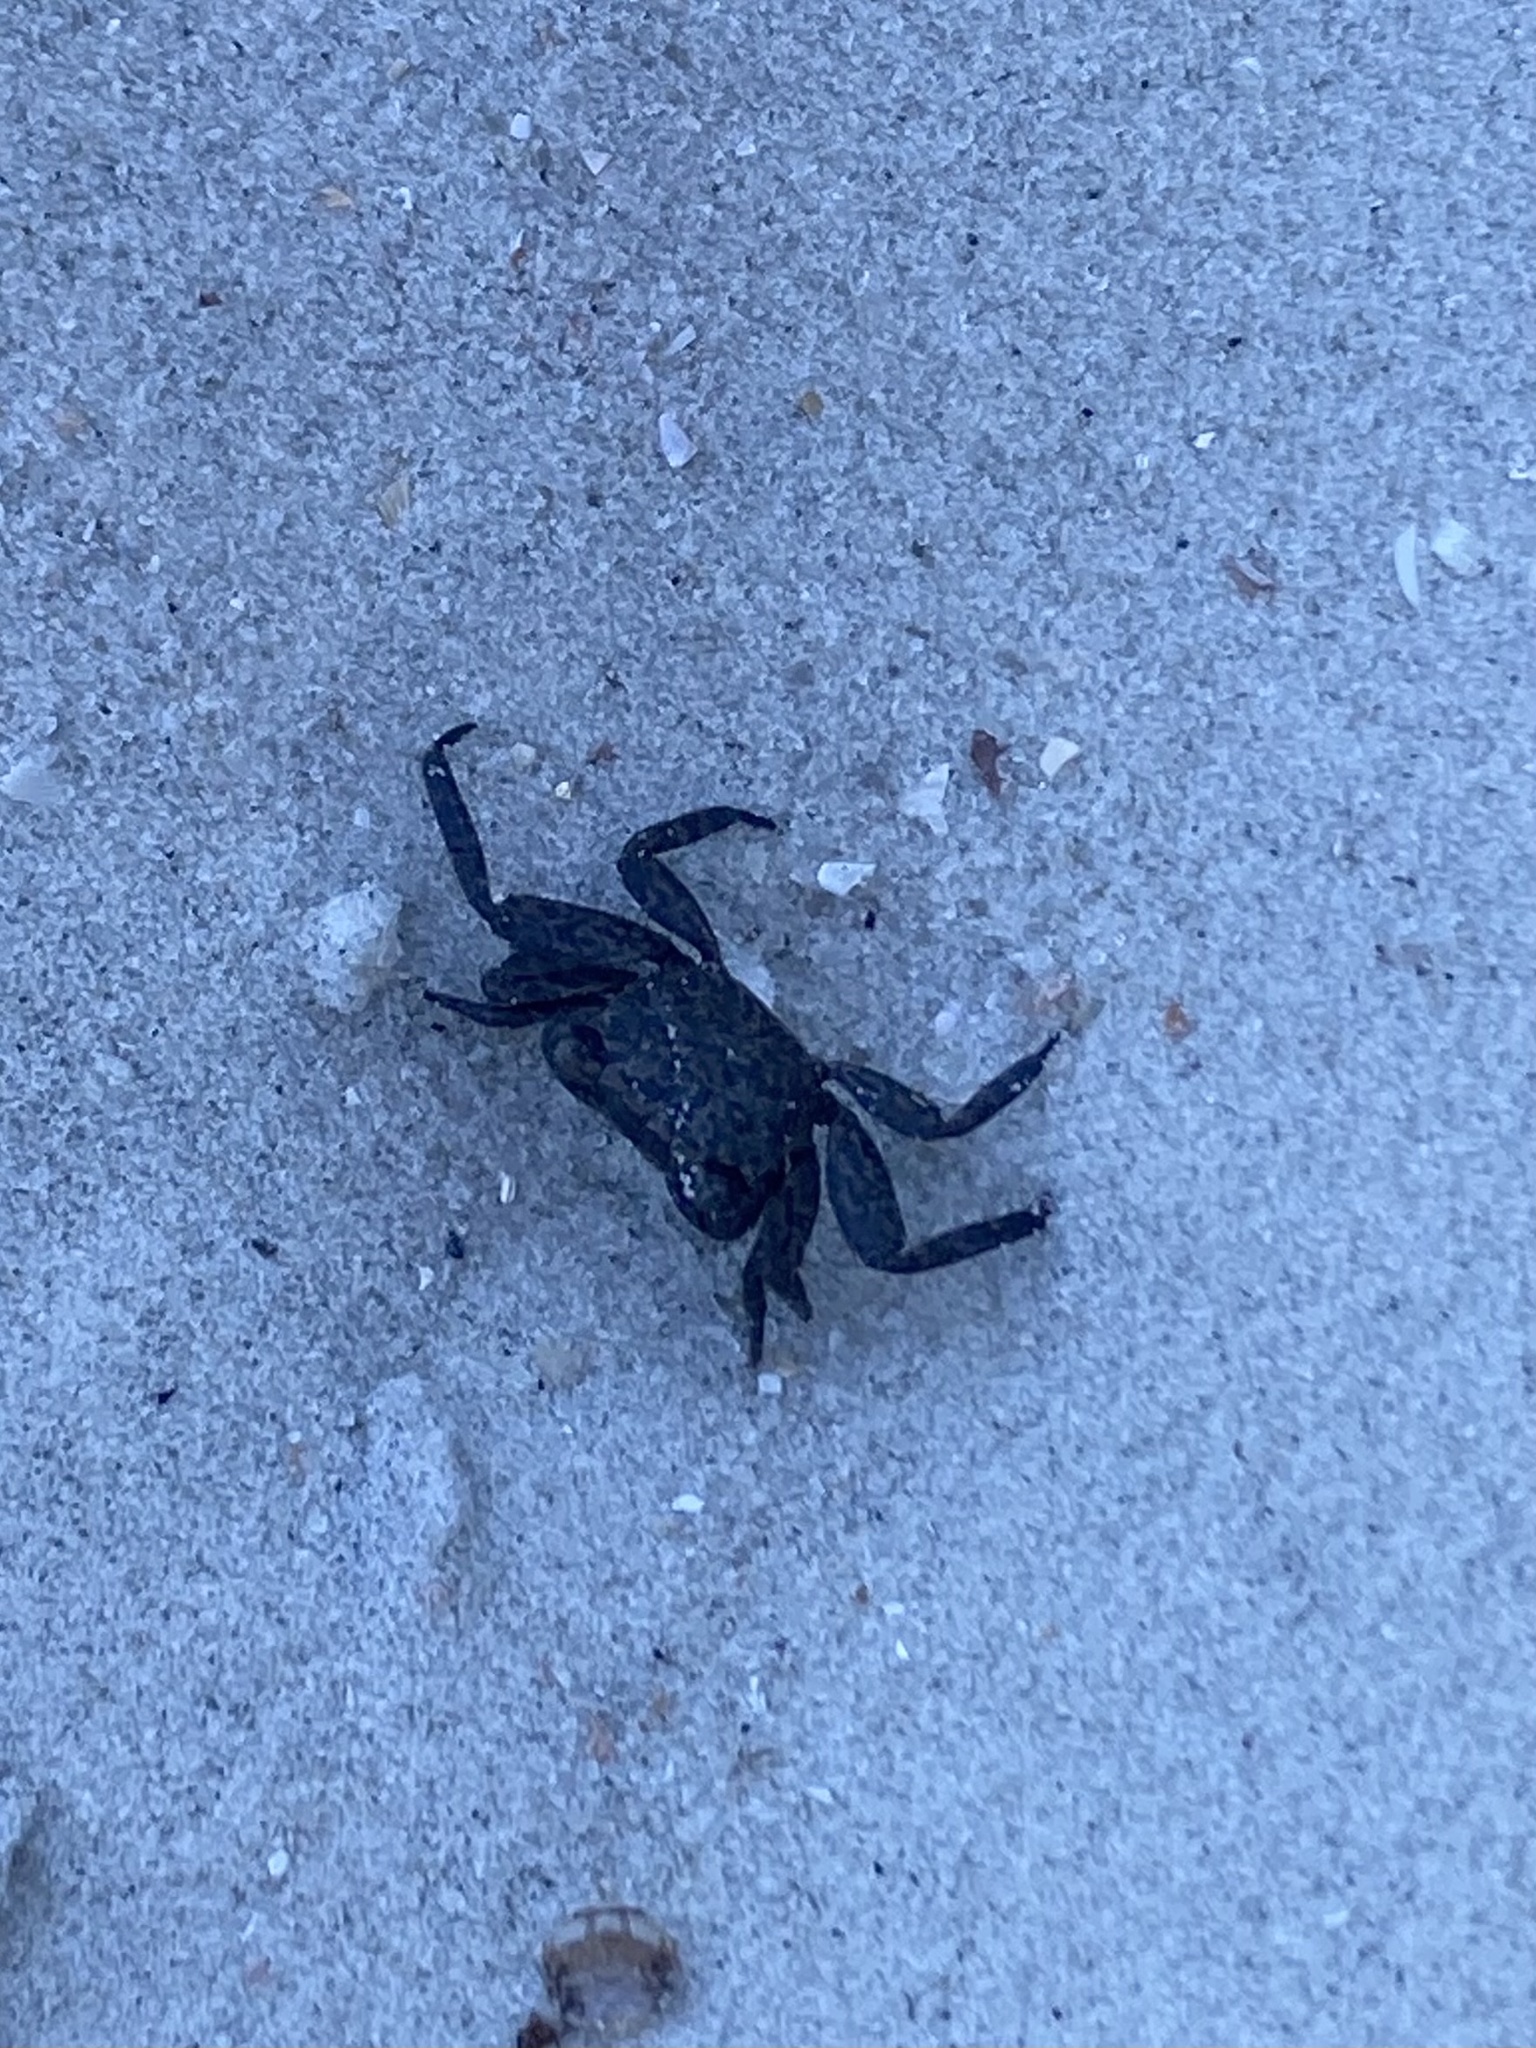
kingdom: Animalia
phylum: Arthropoda
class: Malacostraca
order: Decapoda
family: Sesarmidae
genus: Armases
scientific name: Armases cinereum
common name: Squareback marsh crab
